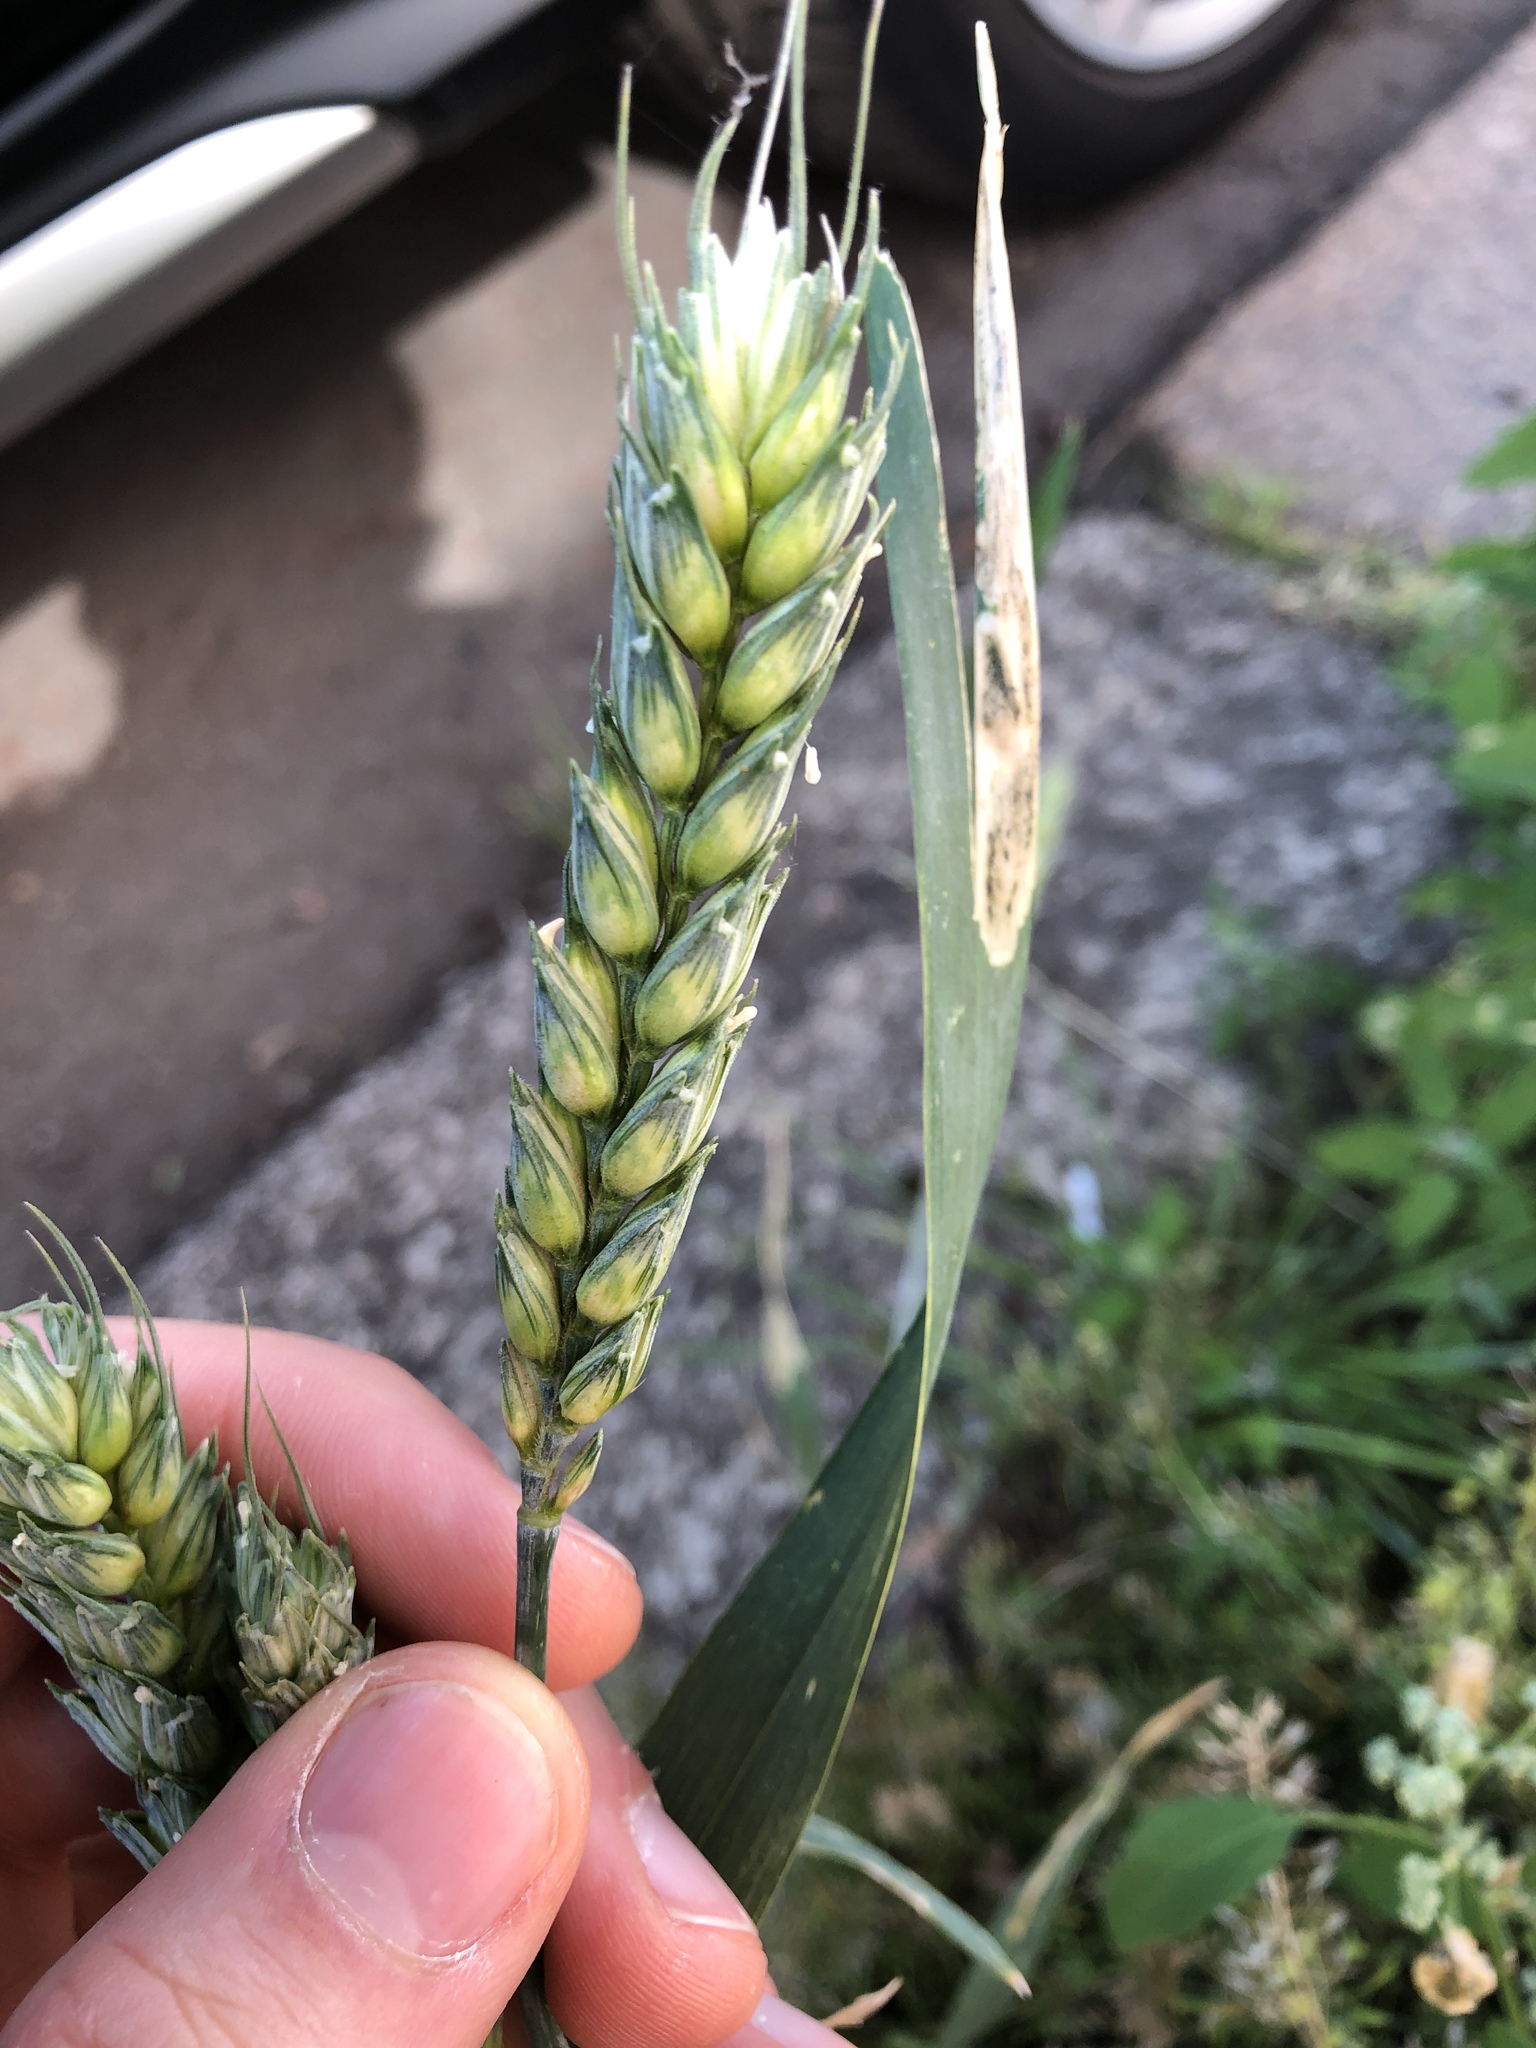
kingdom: Plantae
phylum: Tracheophyta
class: Liliopsida
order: Poales
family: Poaceae
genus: Triticum
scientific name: Triticum aestivum
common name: Common wheat
